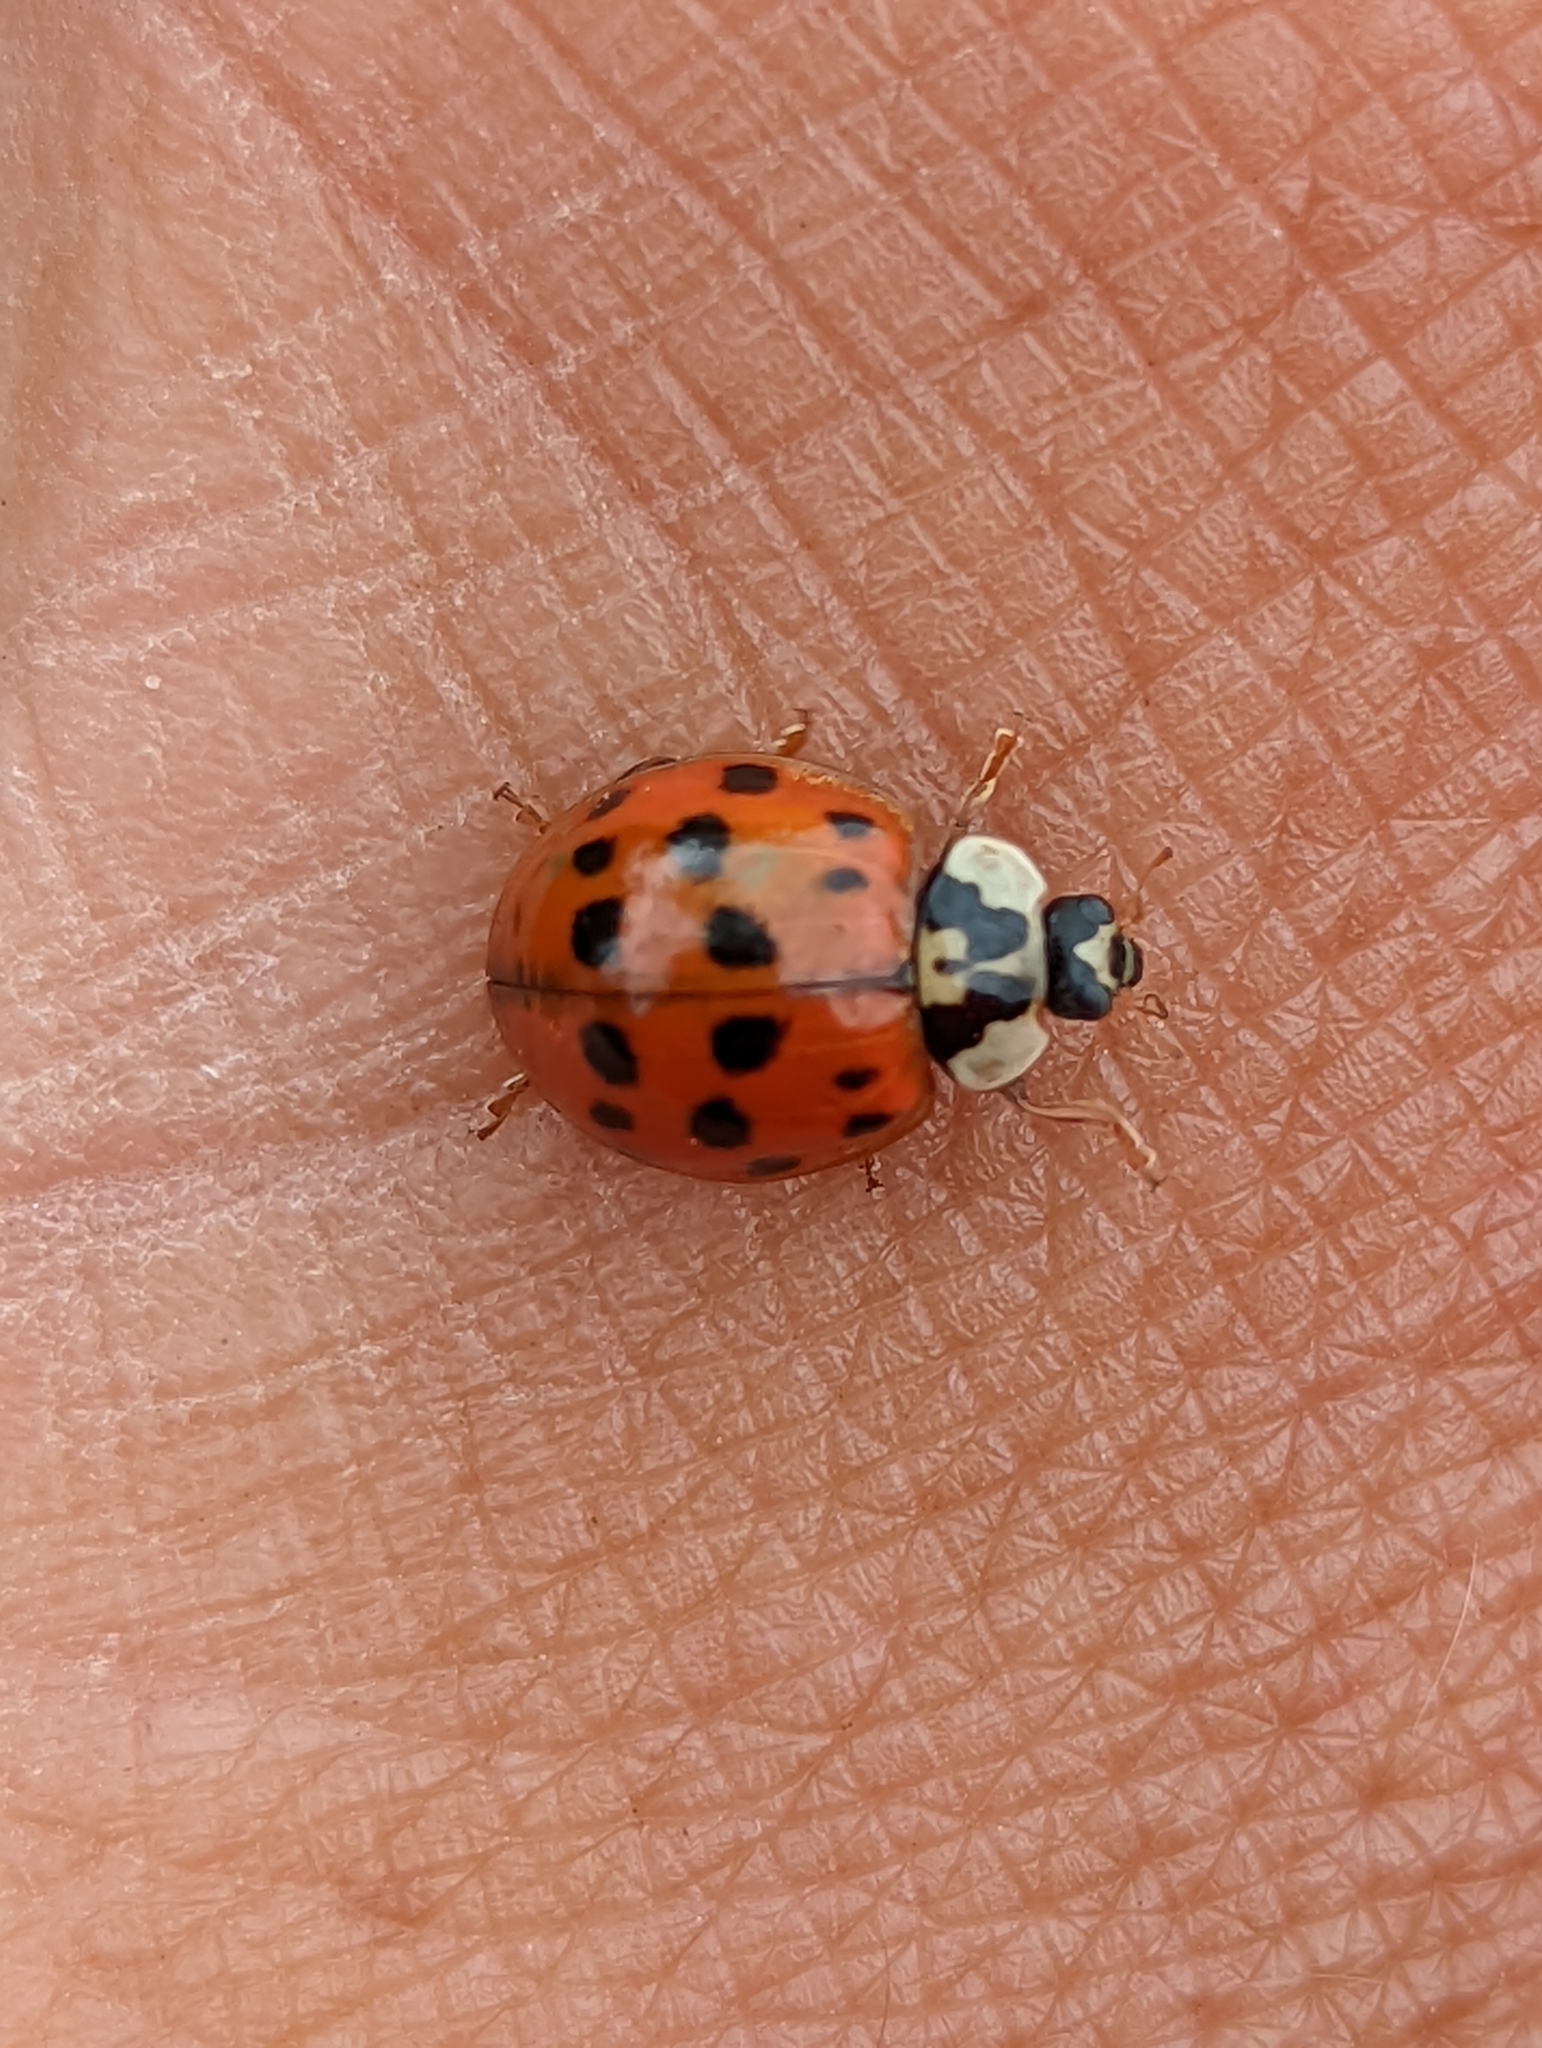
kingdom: Animalia
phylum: Arthropoda
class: Insecta
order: Coleoptera
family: Coccinellidae
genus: Harmonia
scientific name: Harmonia axyridis
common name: Harlequin ladybird
